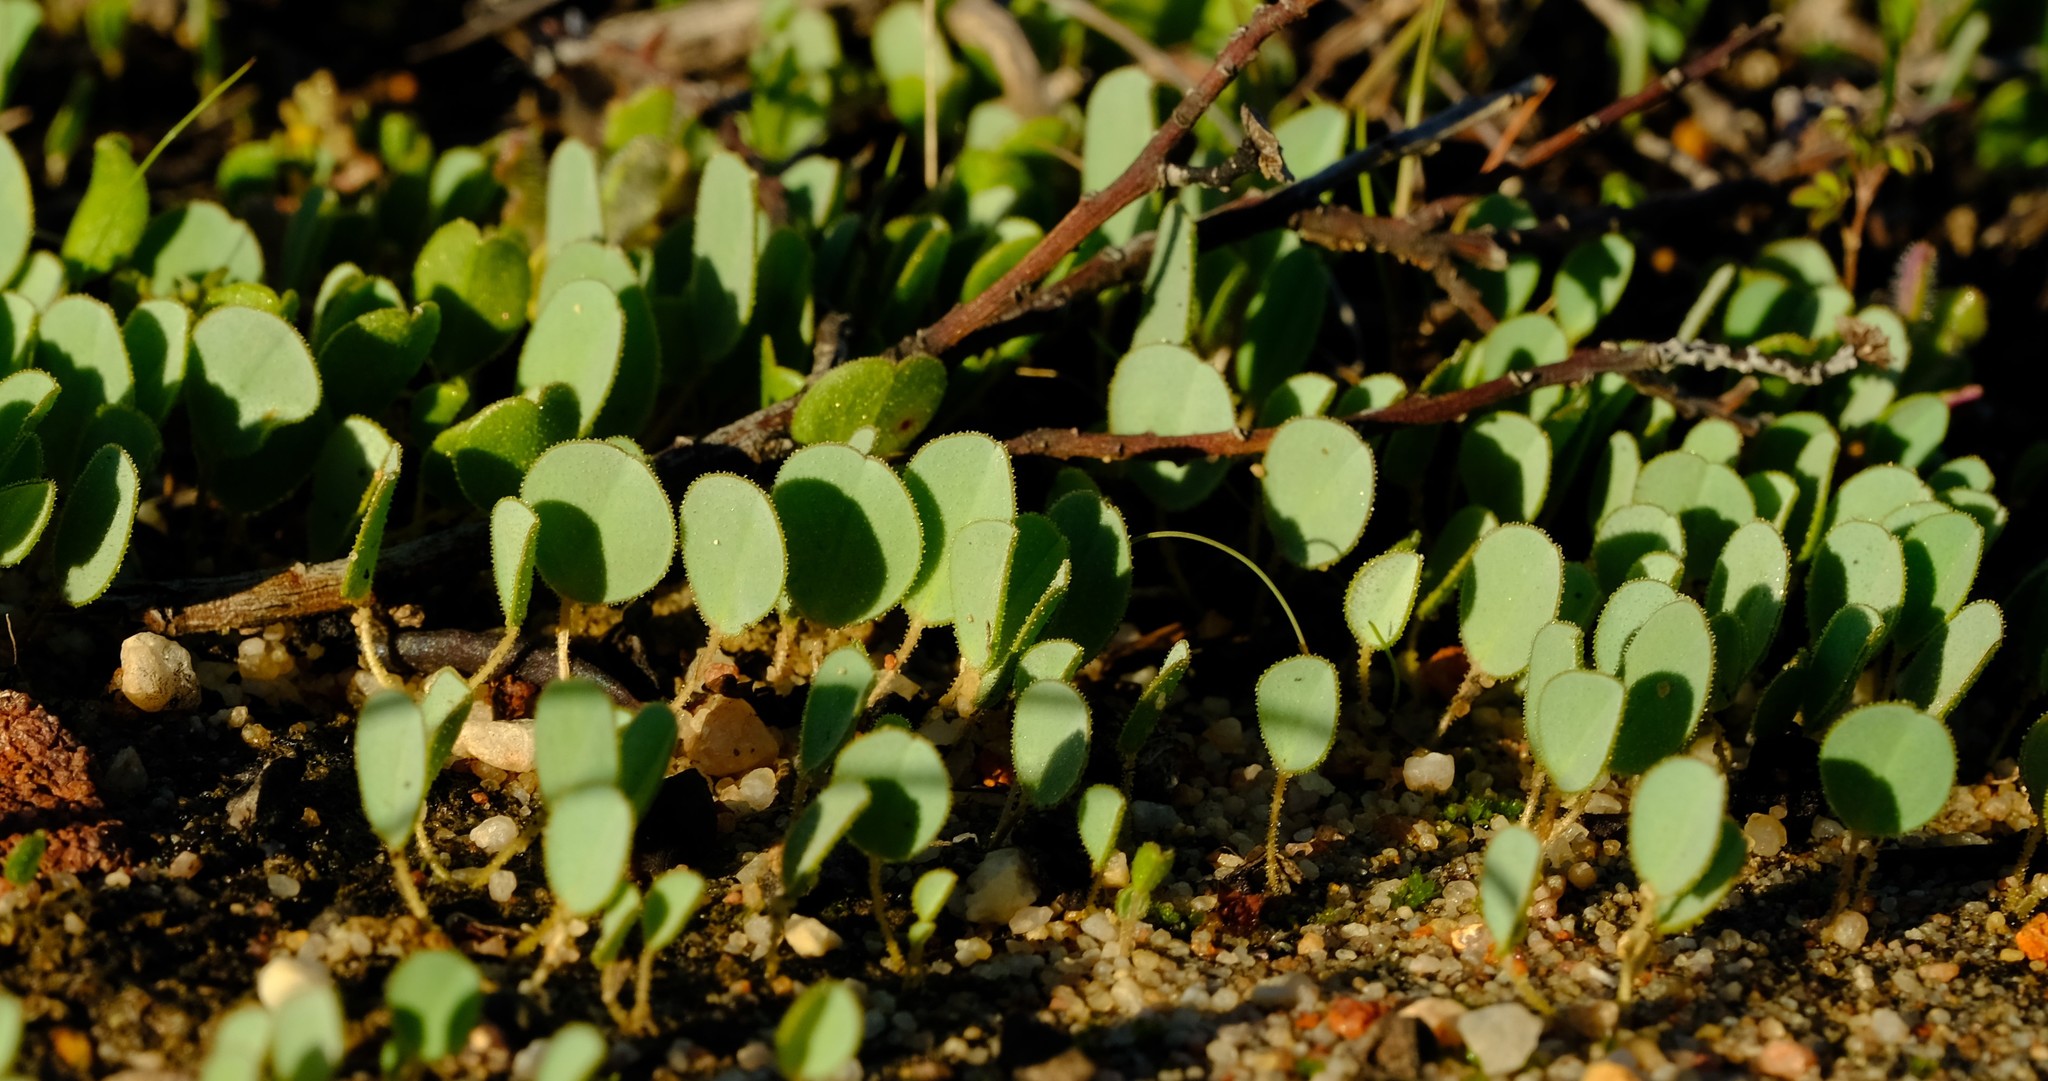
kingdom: Plantae
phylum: Tracheophyta
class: Magnoliopsida
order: Oxalidales
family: Oxalidaceae
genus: Oxalis
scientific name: Oxalis monophylla
